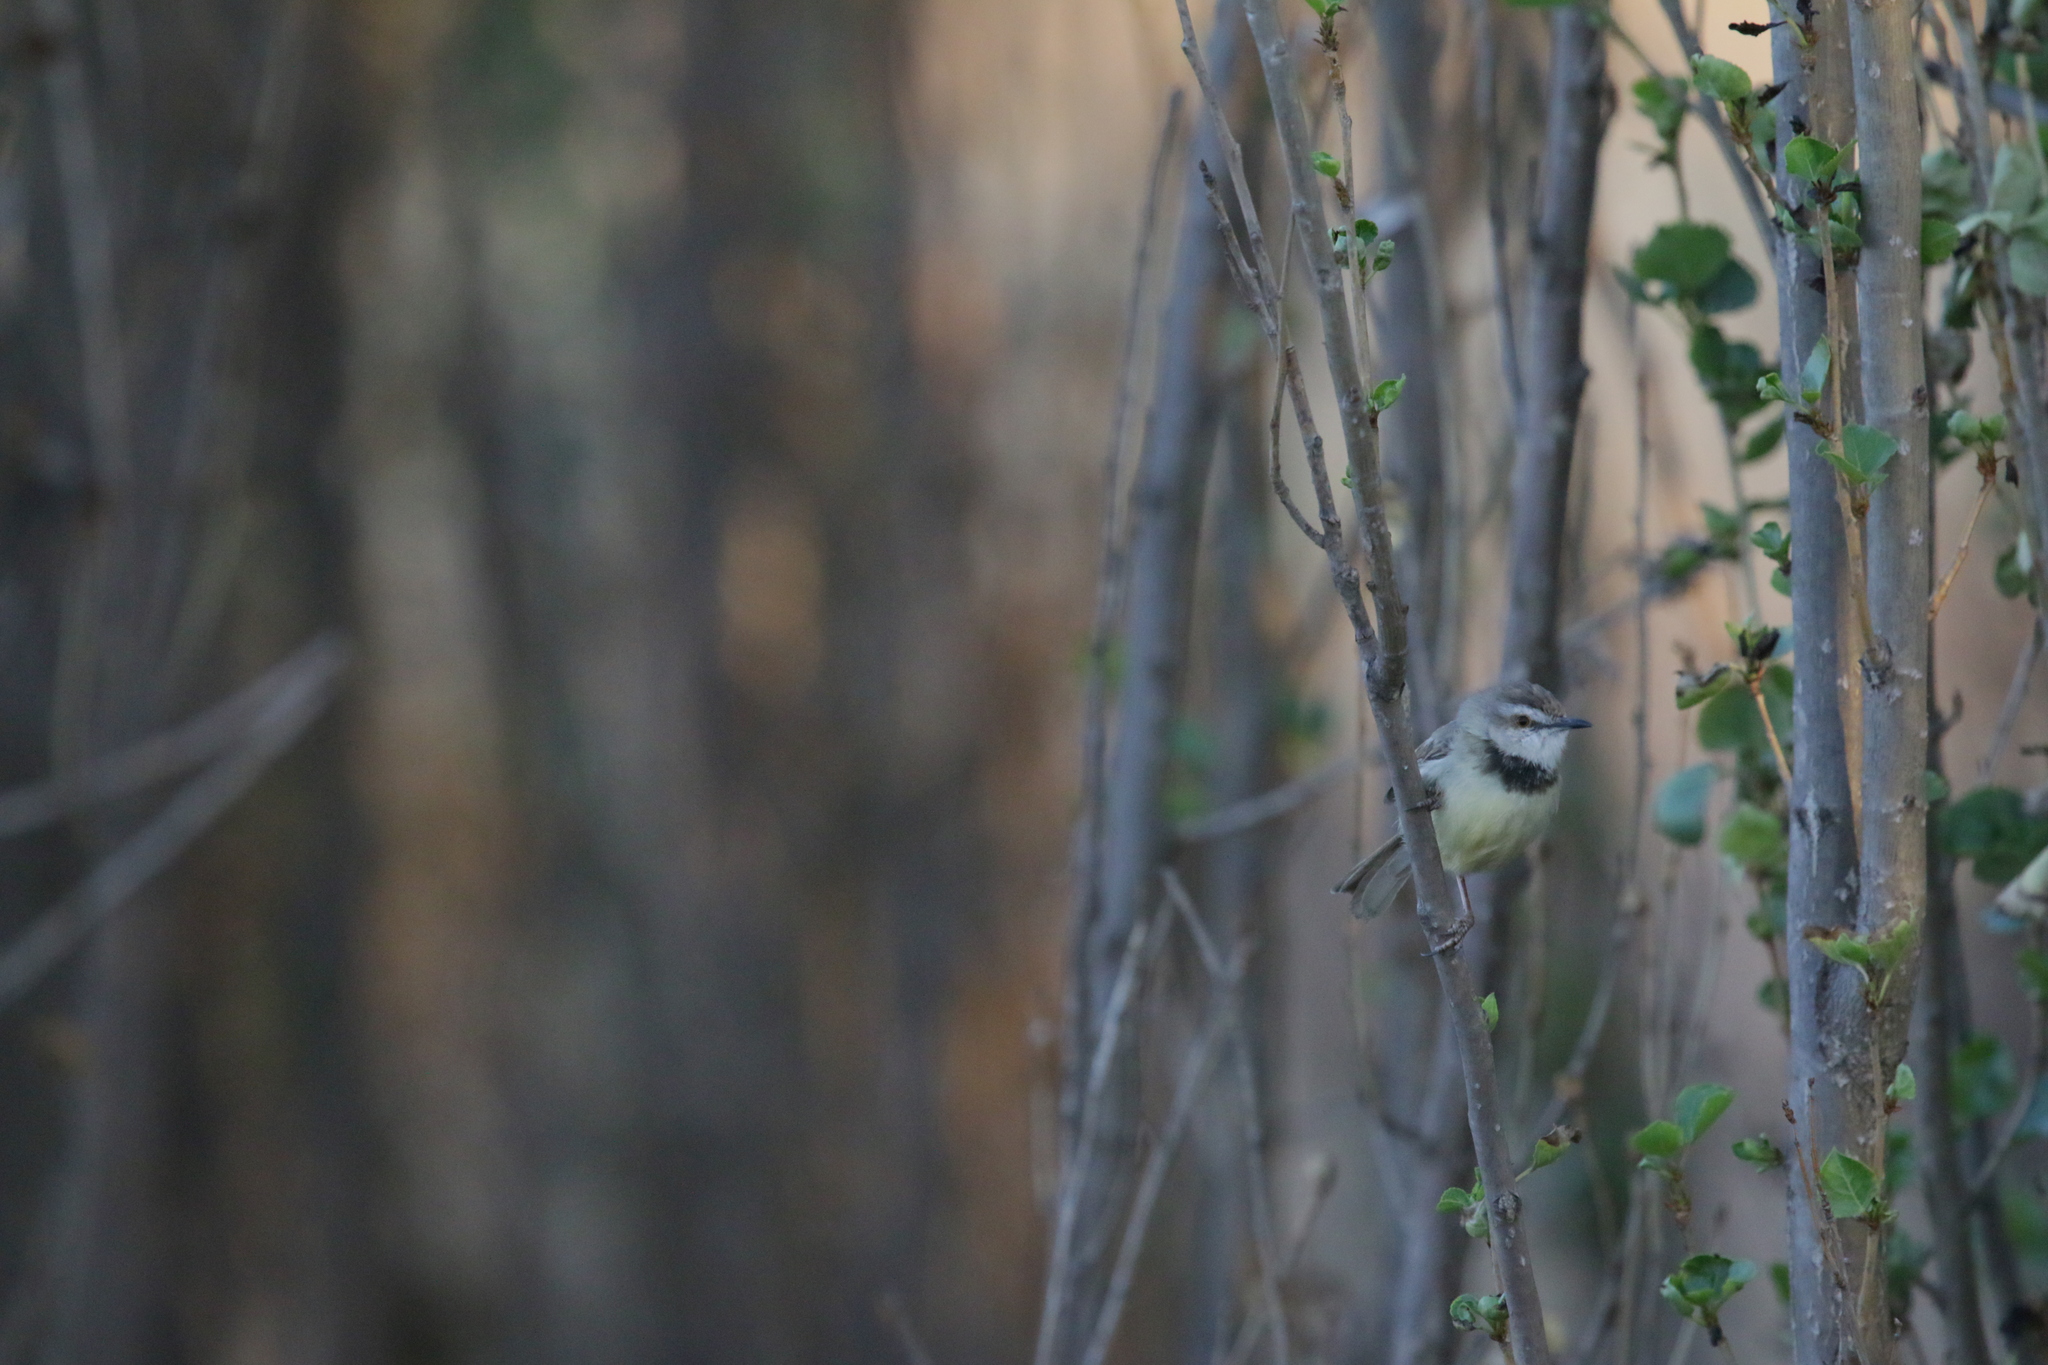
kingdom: Animalia
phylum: Chordata
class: Aves
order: Passeriformes
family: Cisticolidae
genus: Prinia
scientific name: Prinia flavicans
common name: Black-chested prinia
